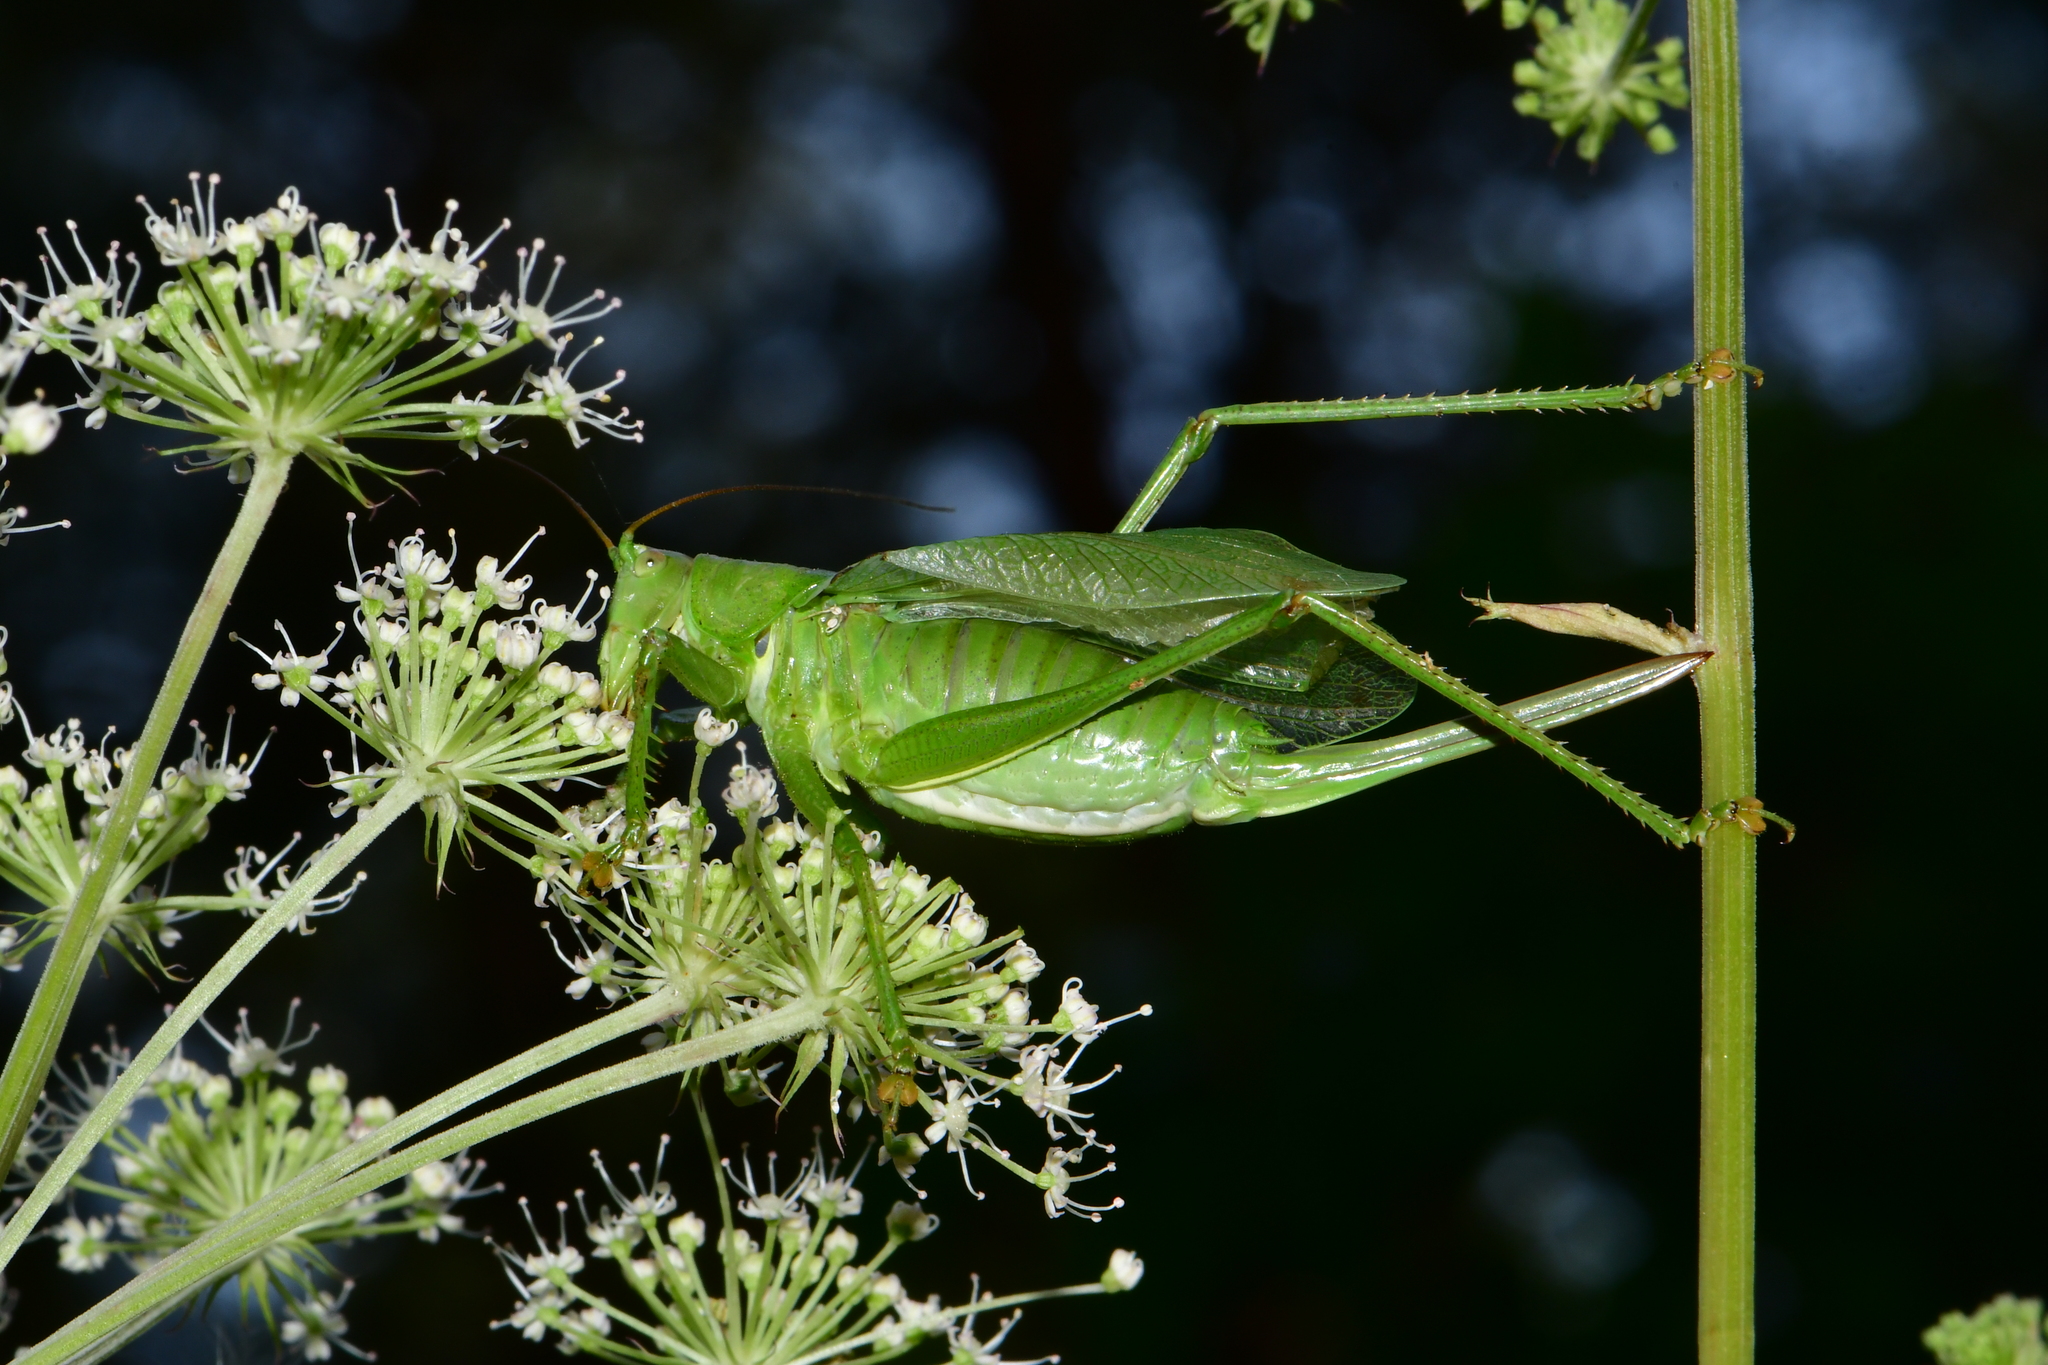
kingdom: Animalia
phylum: Arthropoda
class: Insecta
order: Orthoptera
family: Tettigoniidae
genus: Tettigonia
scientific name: Tettigonia cantans
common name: Upland green bush-cricket
